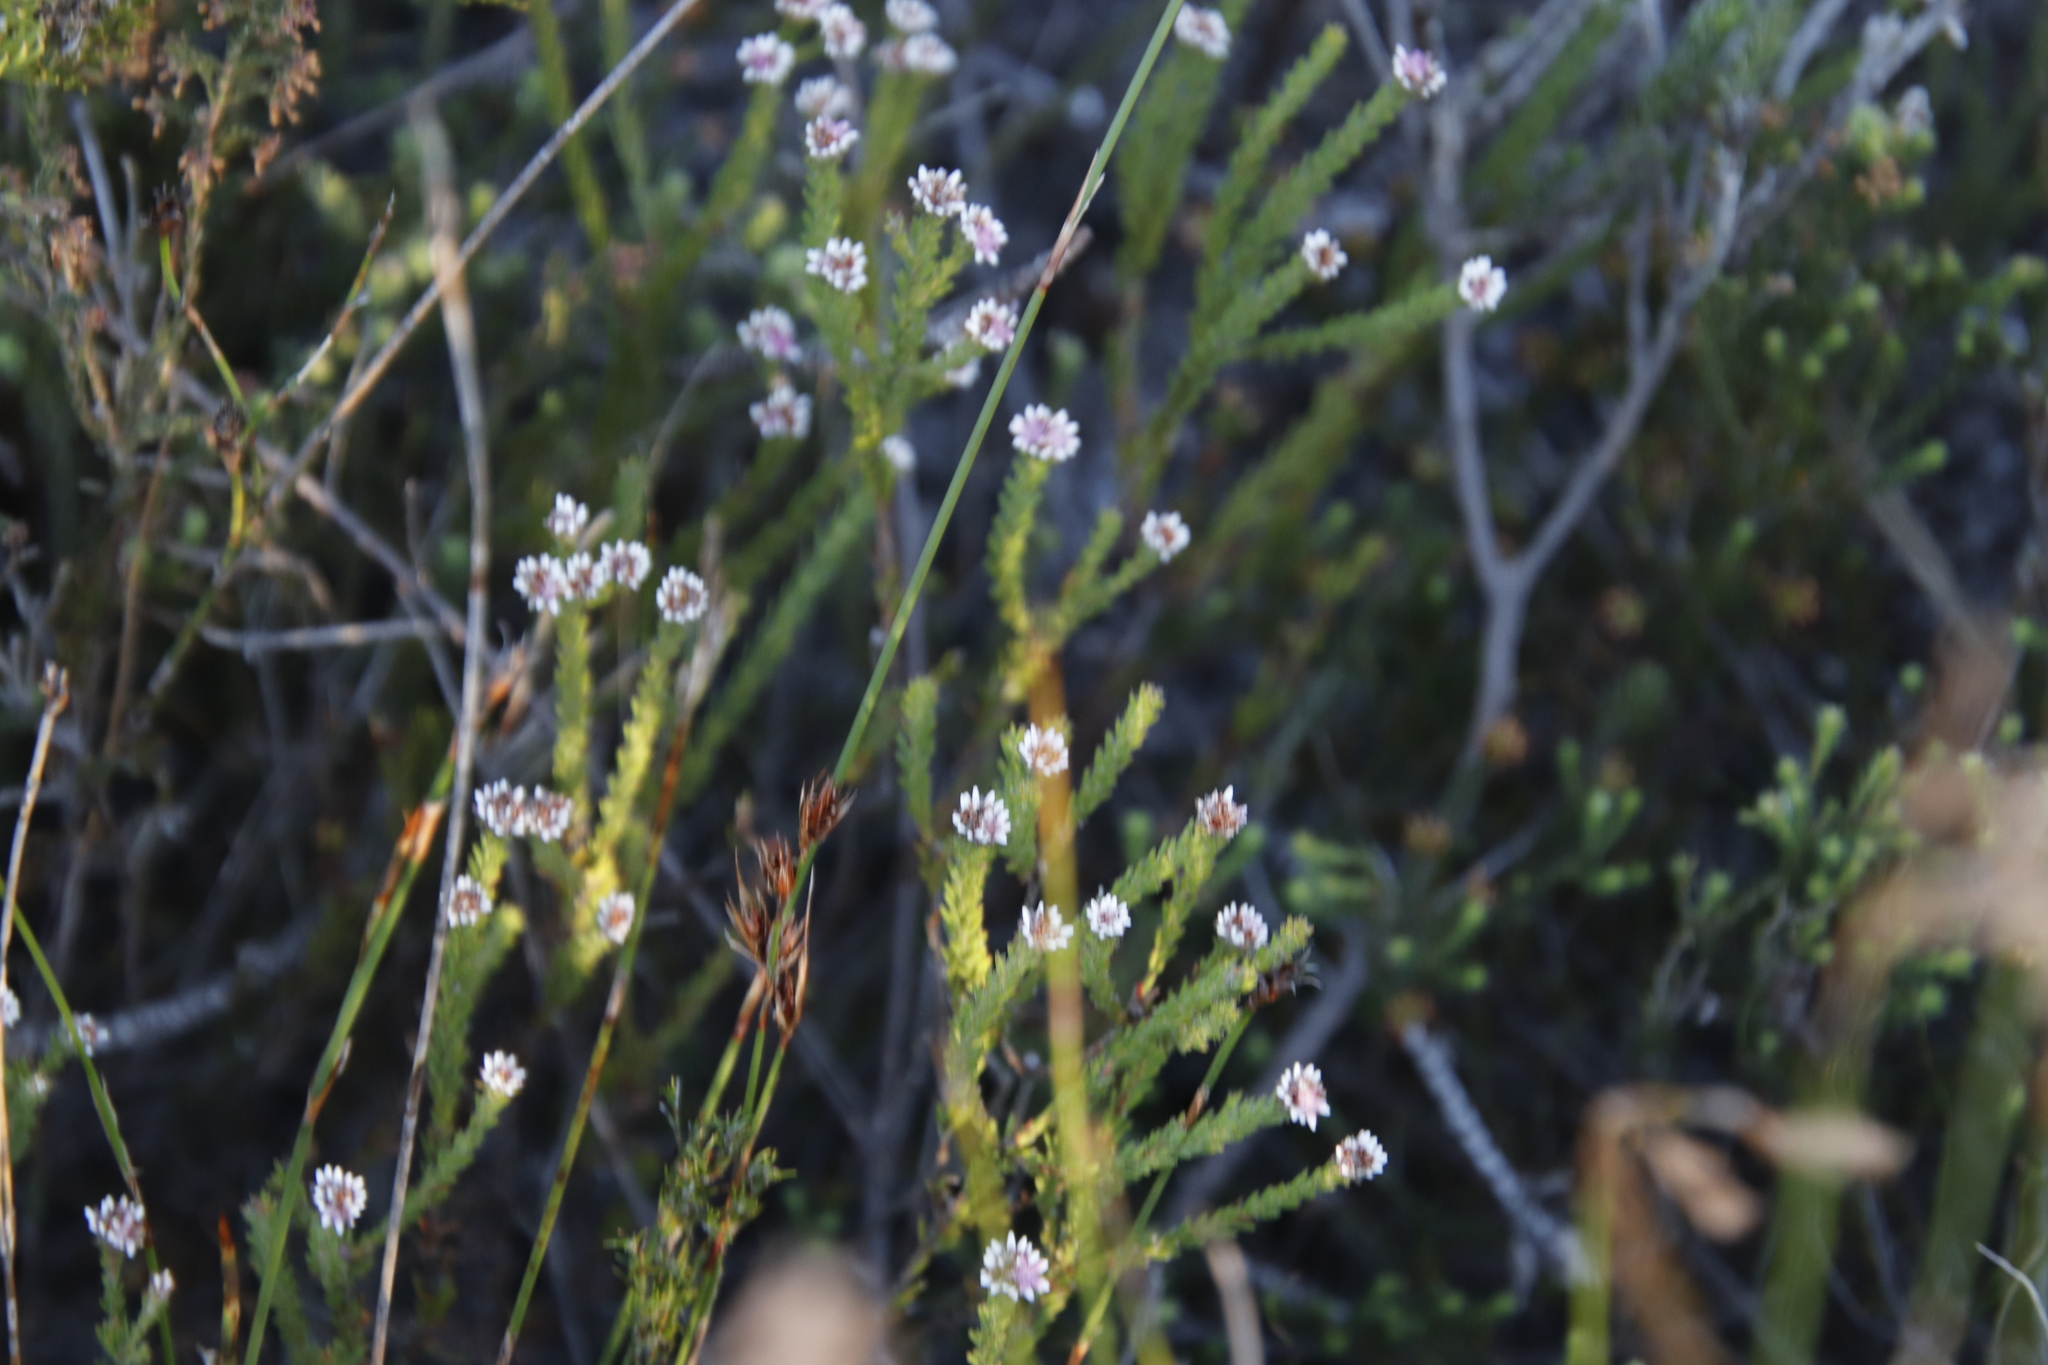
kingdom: Plantae
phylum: Tracheophyta
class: Magnoliopsida
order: Bruniales
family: Bruniaceae
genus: Staavia
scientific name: Staavia radiata
